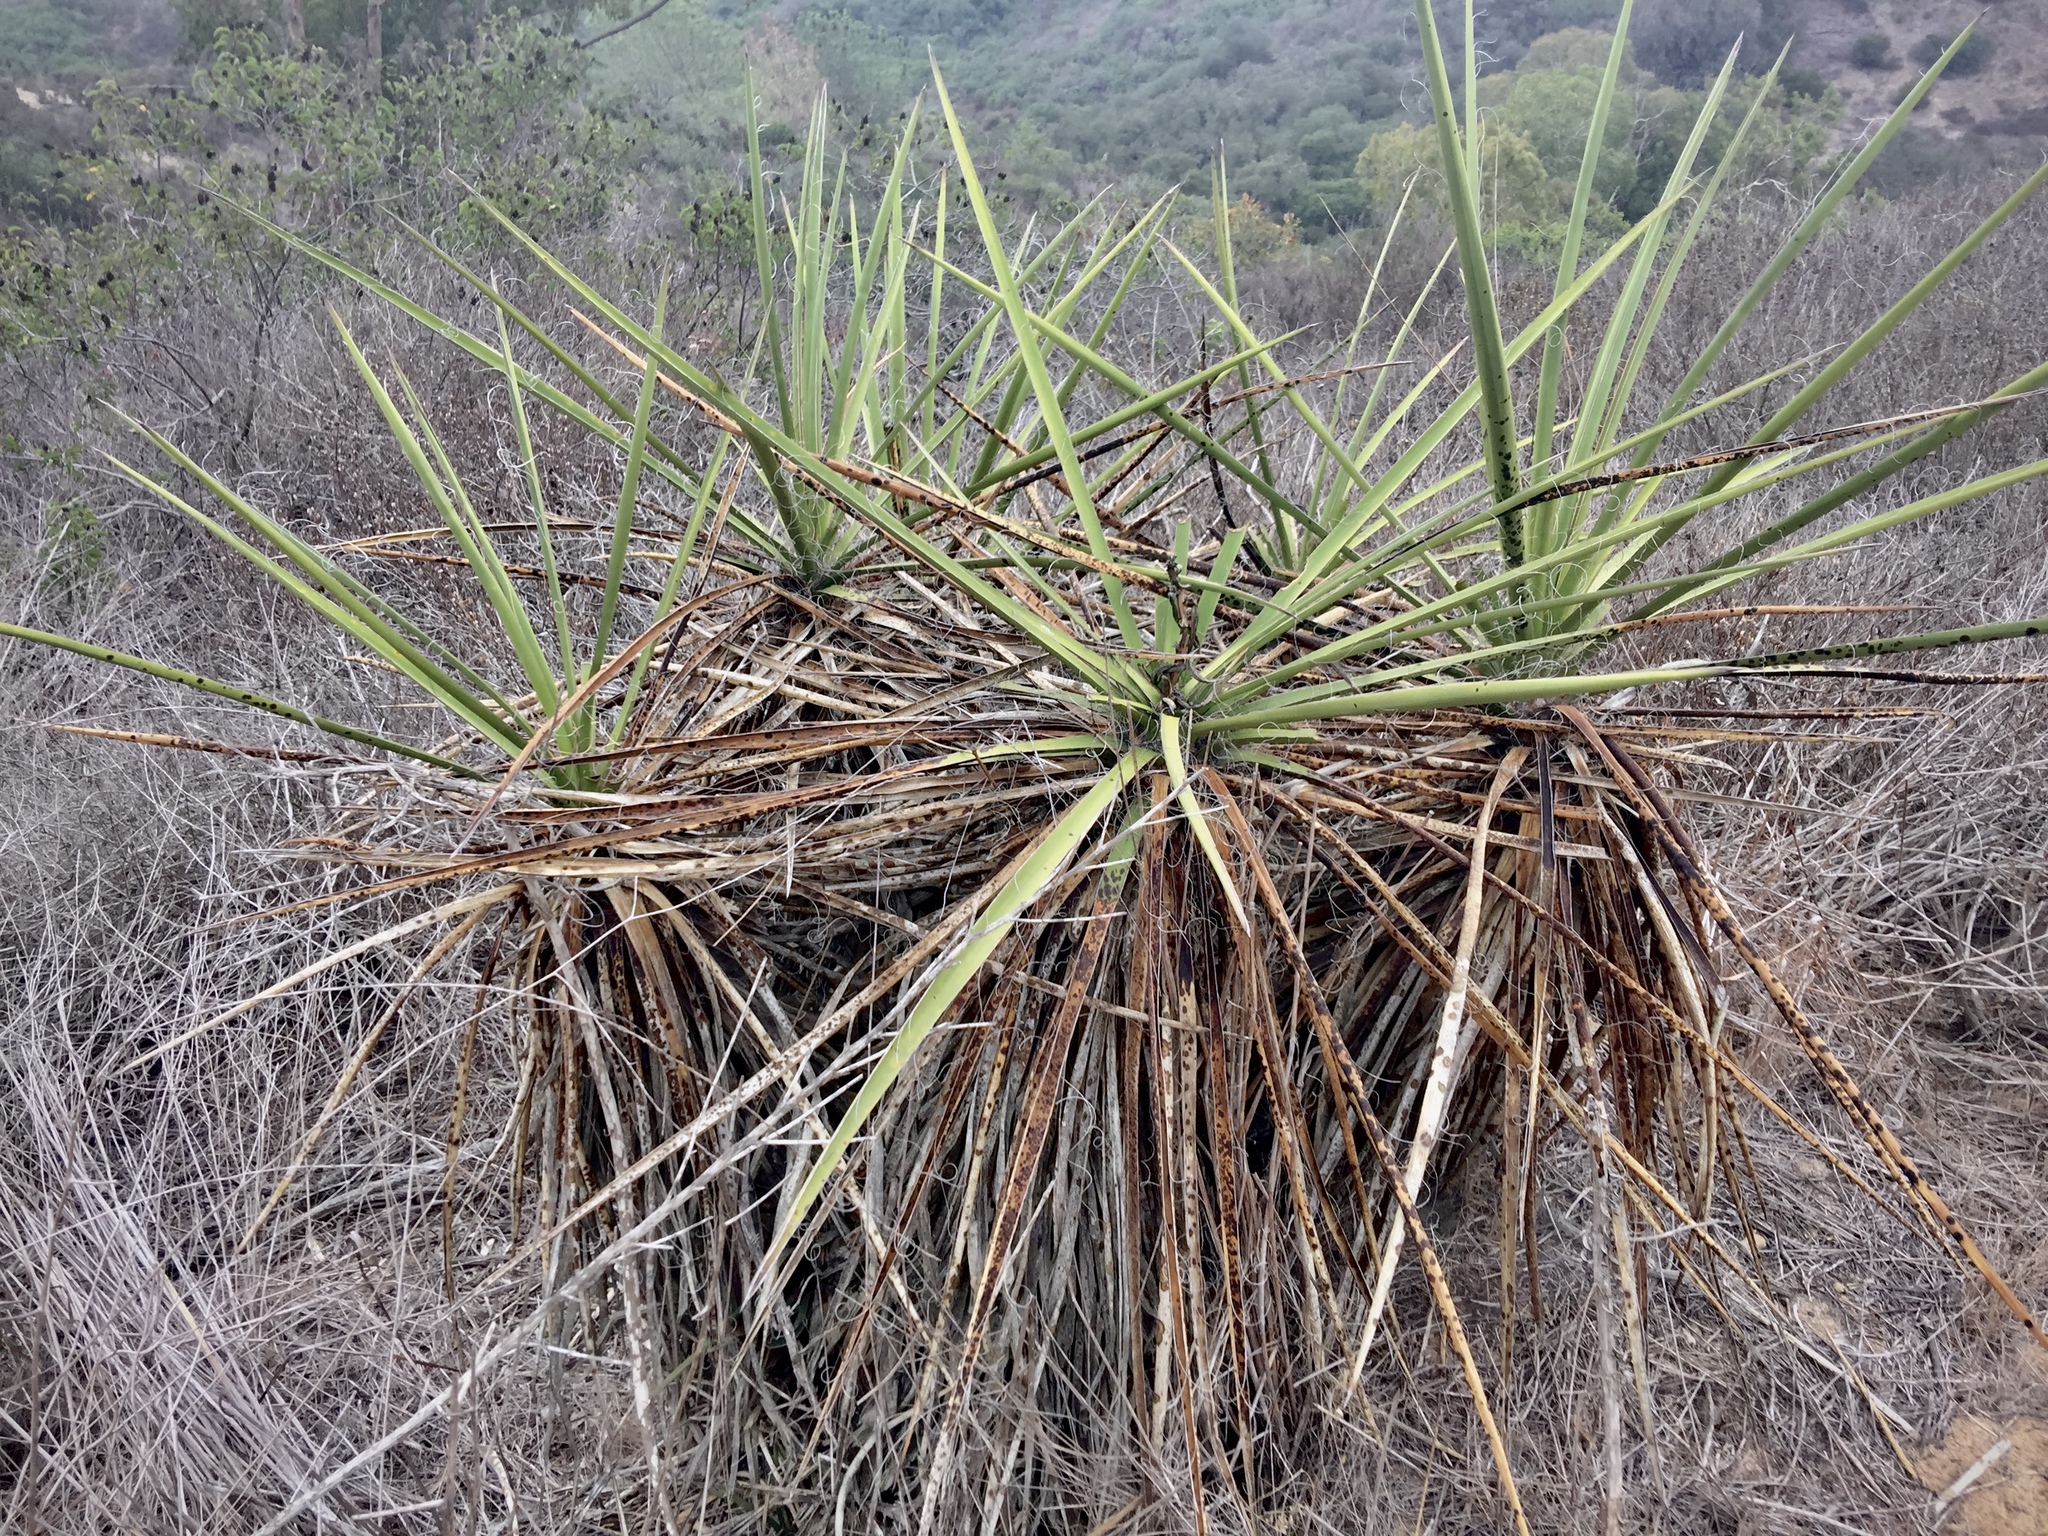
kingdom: Plantae
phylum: Tracheophyta
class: Liliopsida
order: Asparagales
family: Asparagaceae
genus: Yucca
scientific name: Yucca schidigera
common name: Mojave yucca
